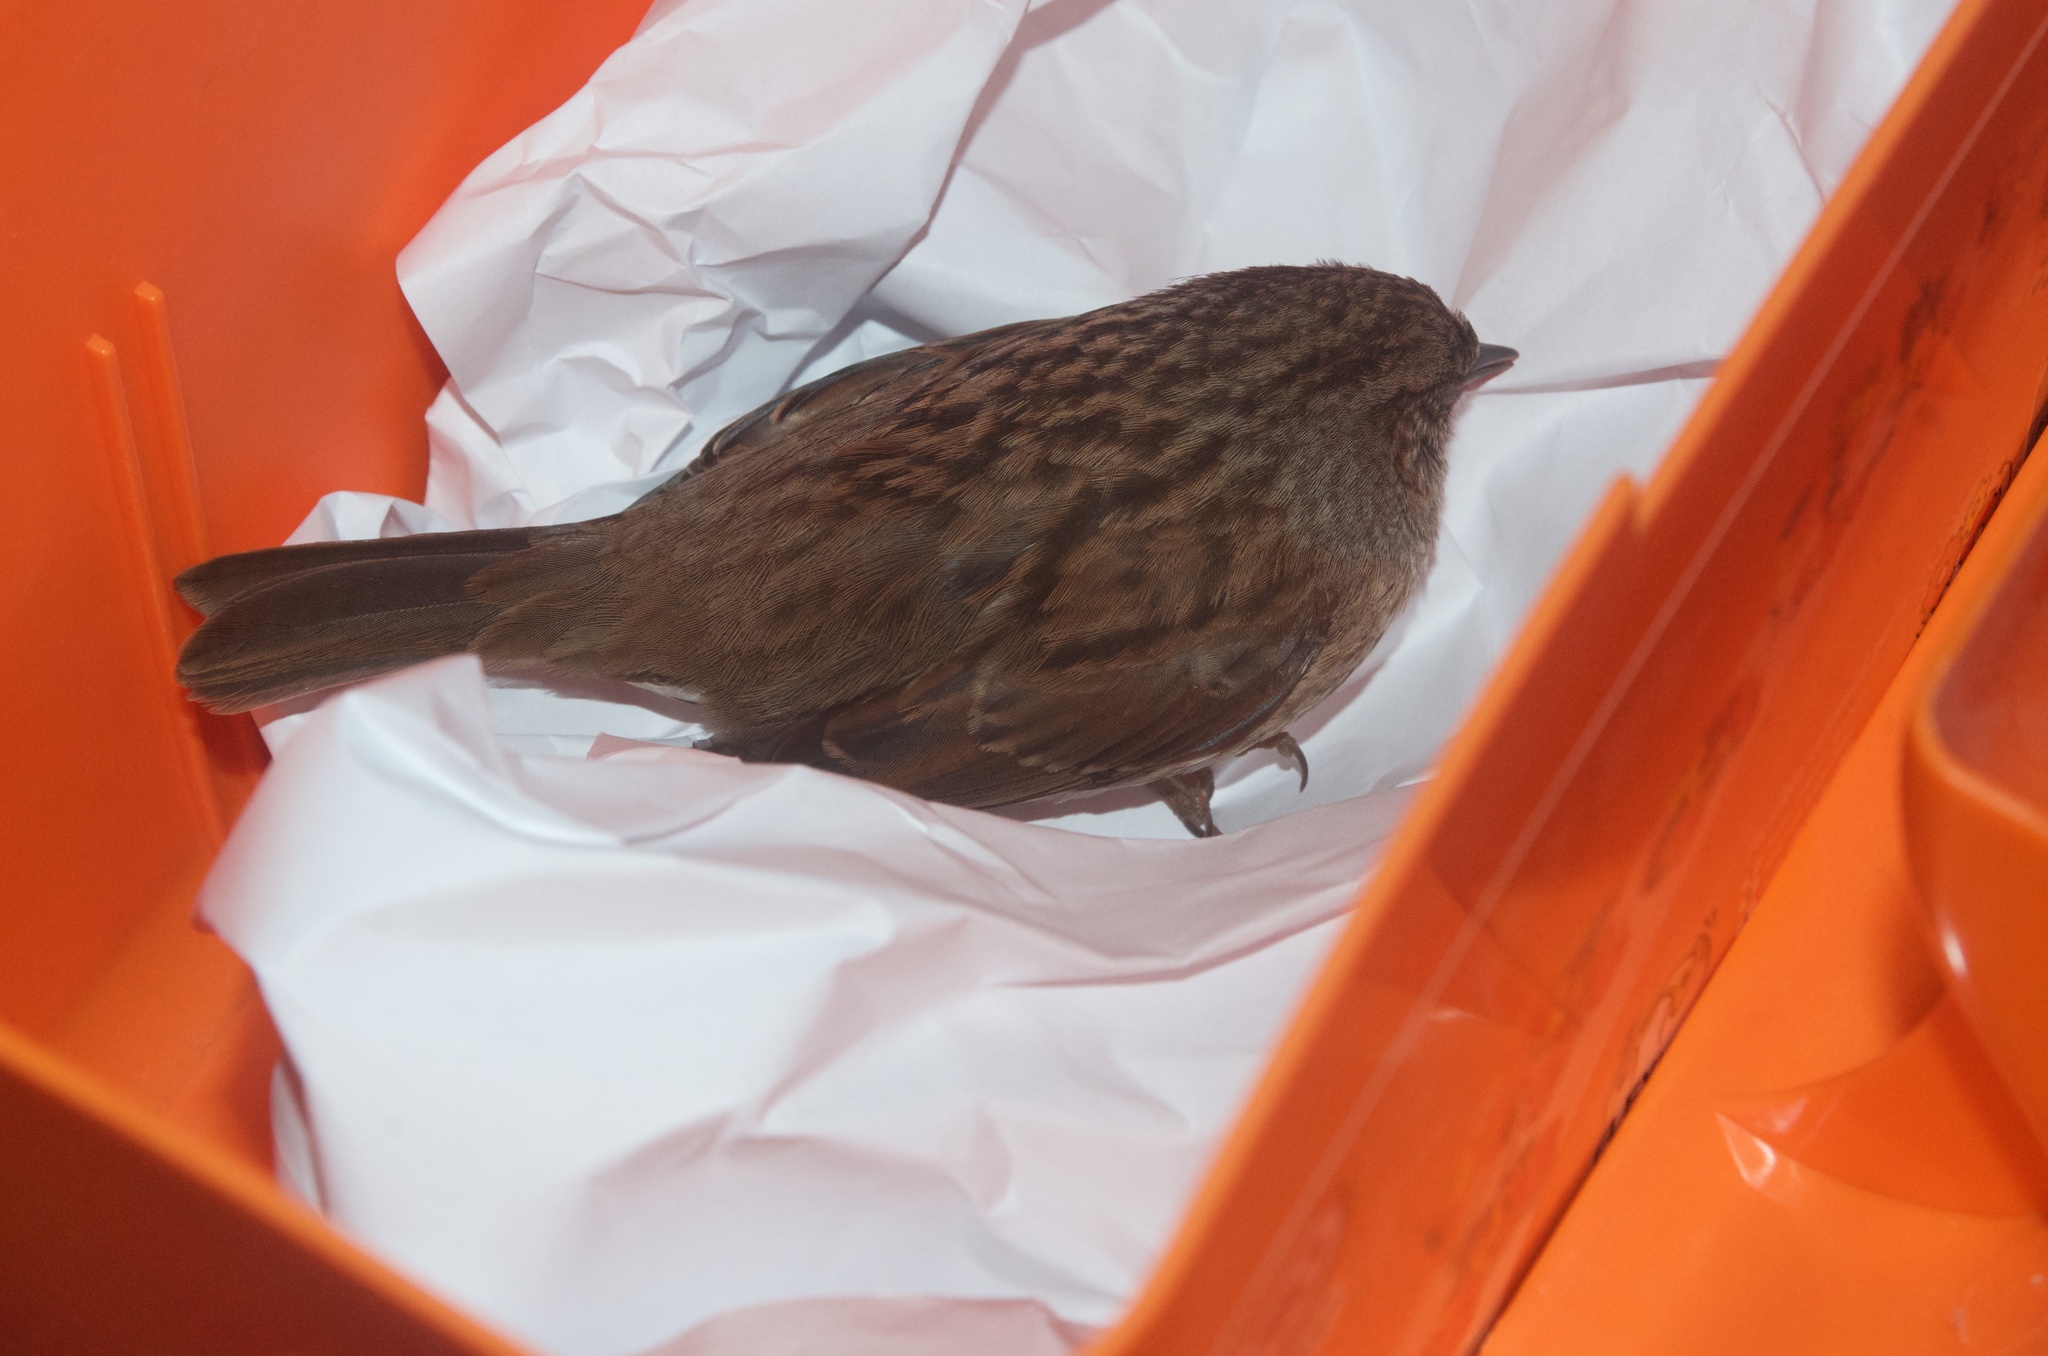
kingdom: Animalia
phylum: Chordata
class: Aves
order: Passeriformes
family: Prunellidae
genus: Prunella
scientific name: Prunella modularis
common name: Dunnock
